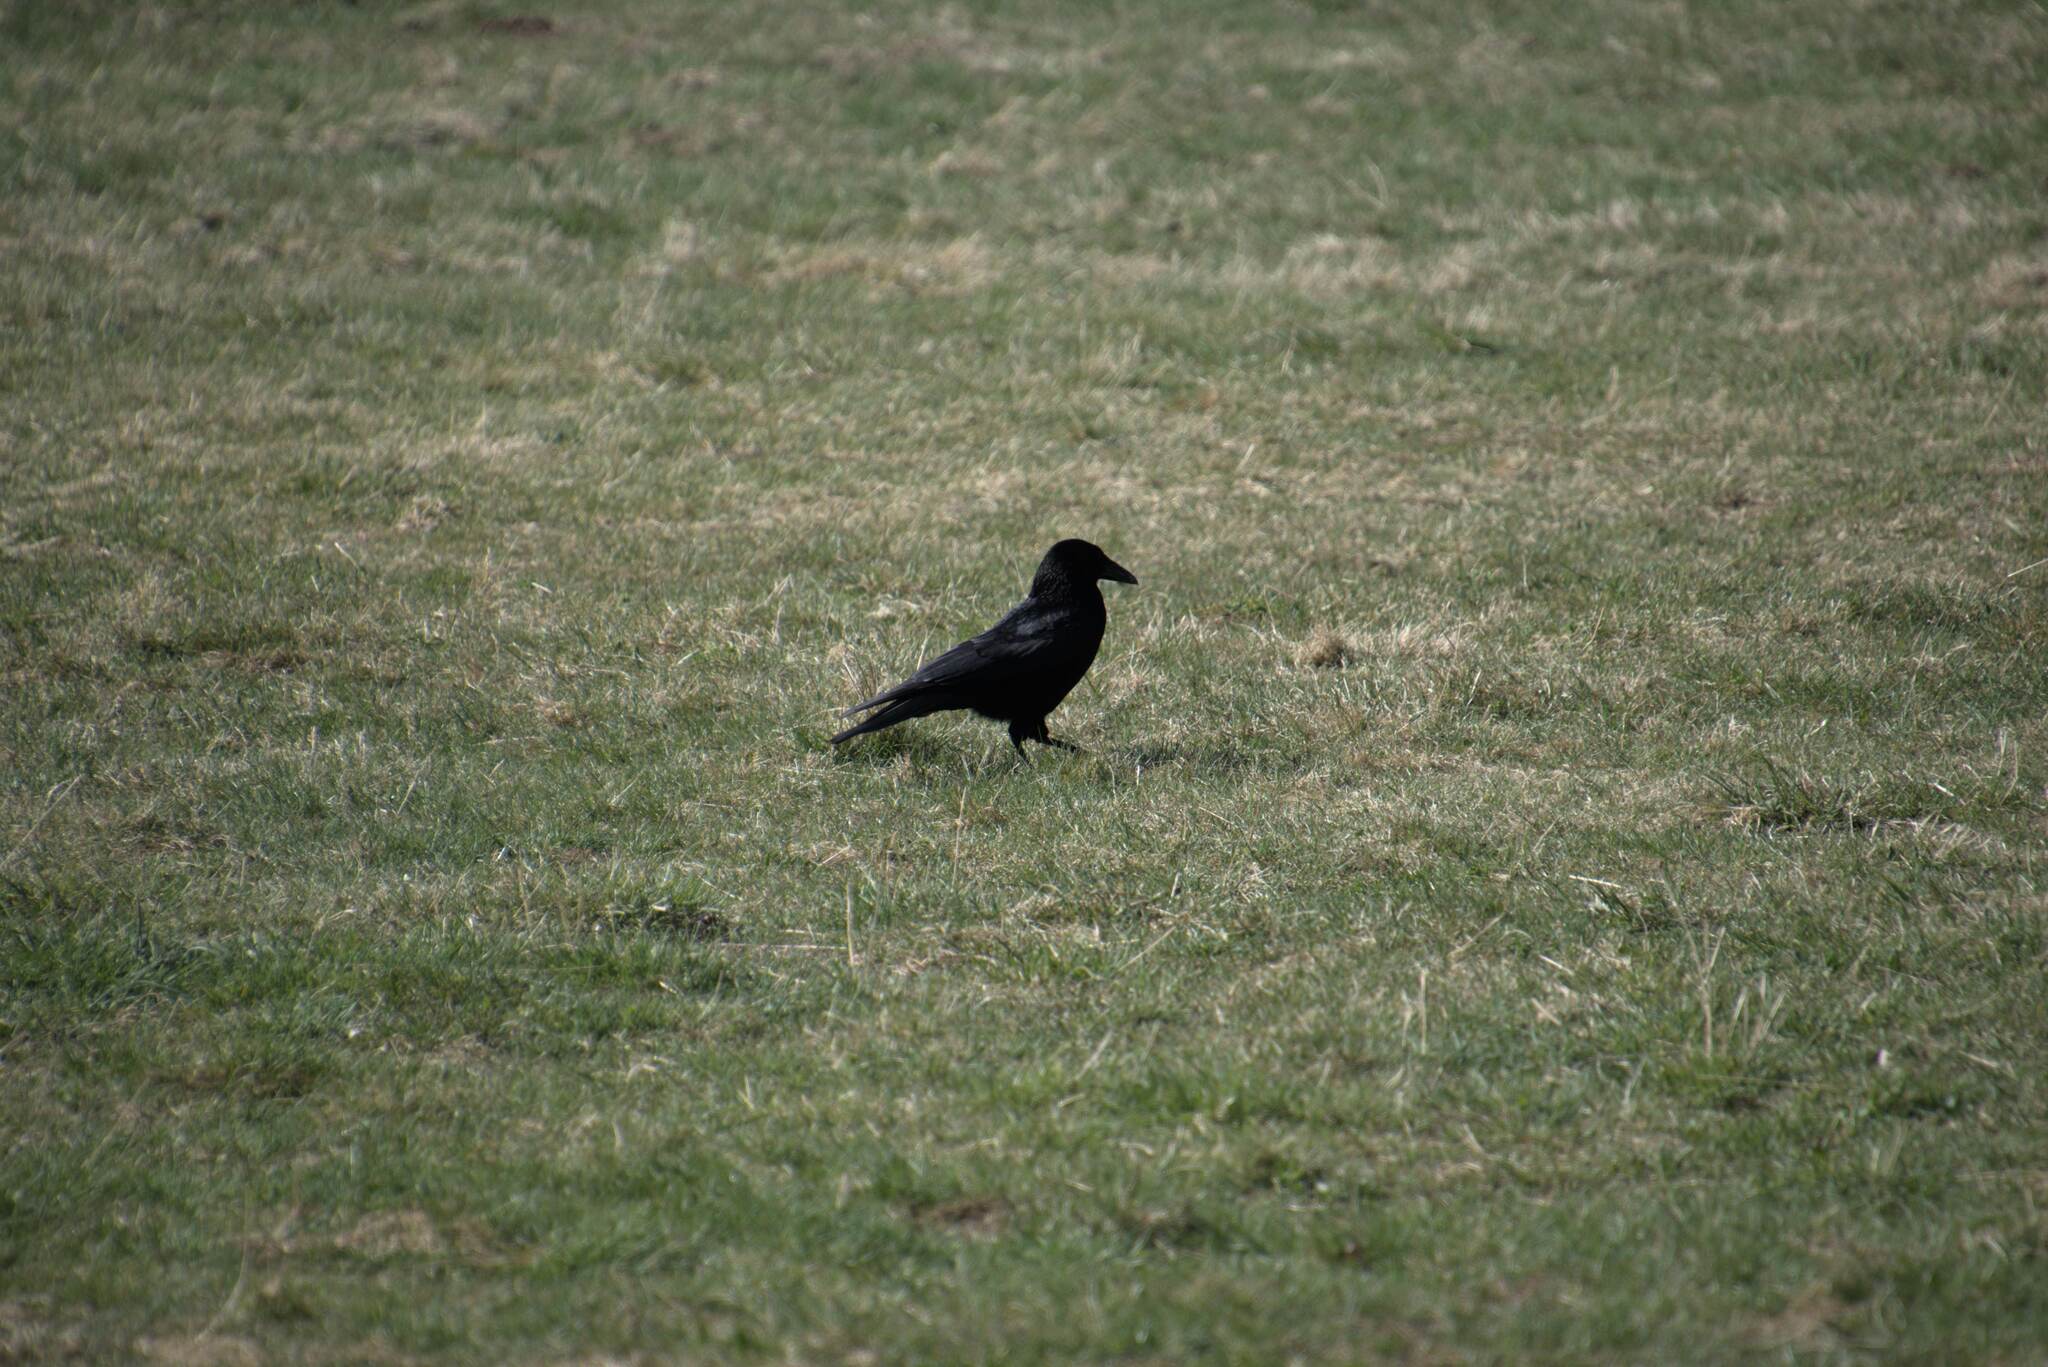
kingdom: Animalia
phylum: Chordata
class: Aves
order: Passeriformes
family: Corvidae
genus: Corvus
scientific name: Corvus corone
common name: Carrion crow
